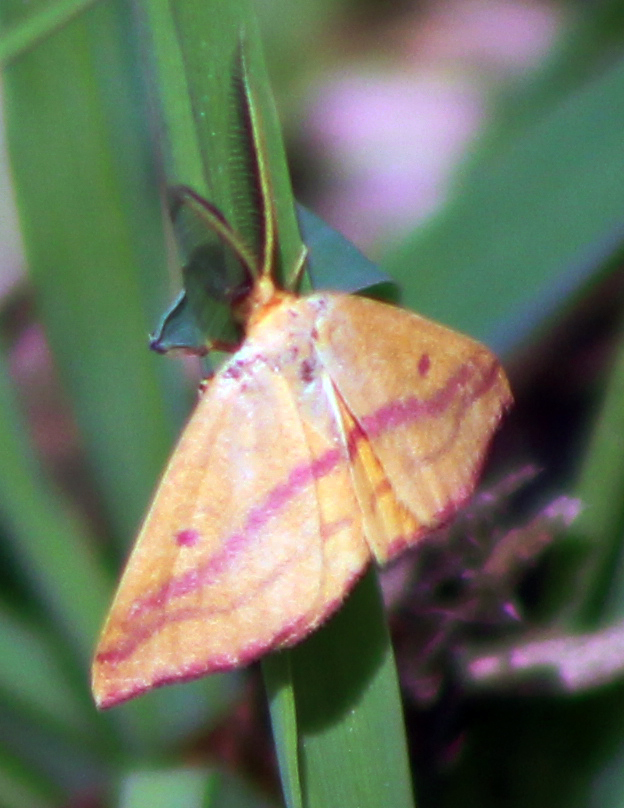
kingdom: Animalia
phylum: Arthropoda
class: Insecta
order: Lepidoptera
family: Geometridae
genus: Haematopis
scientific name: Haematopis grataria
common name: Chickweed geometer
